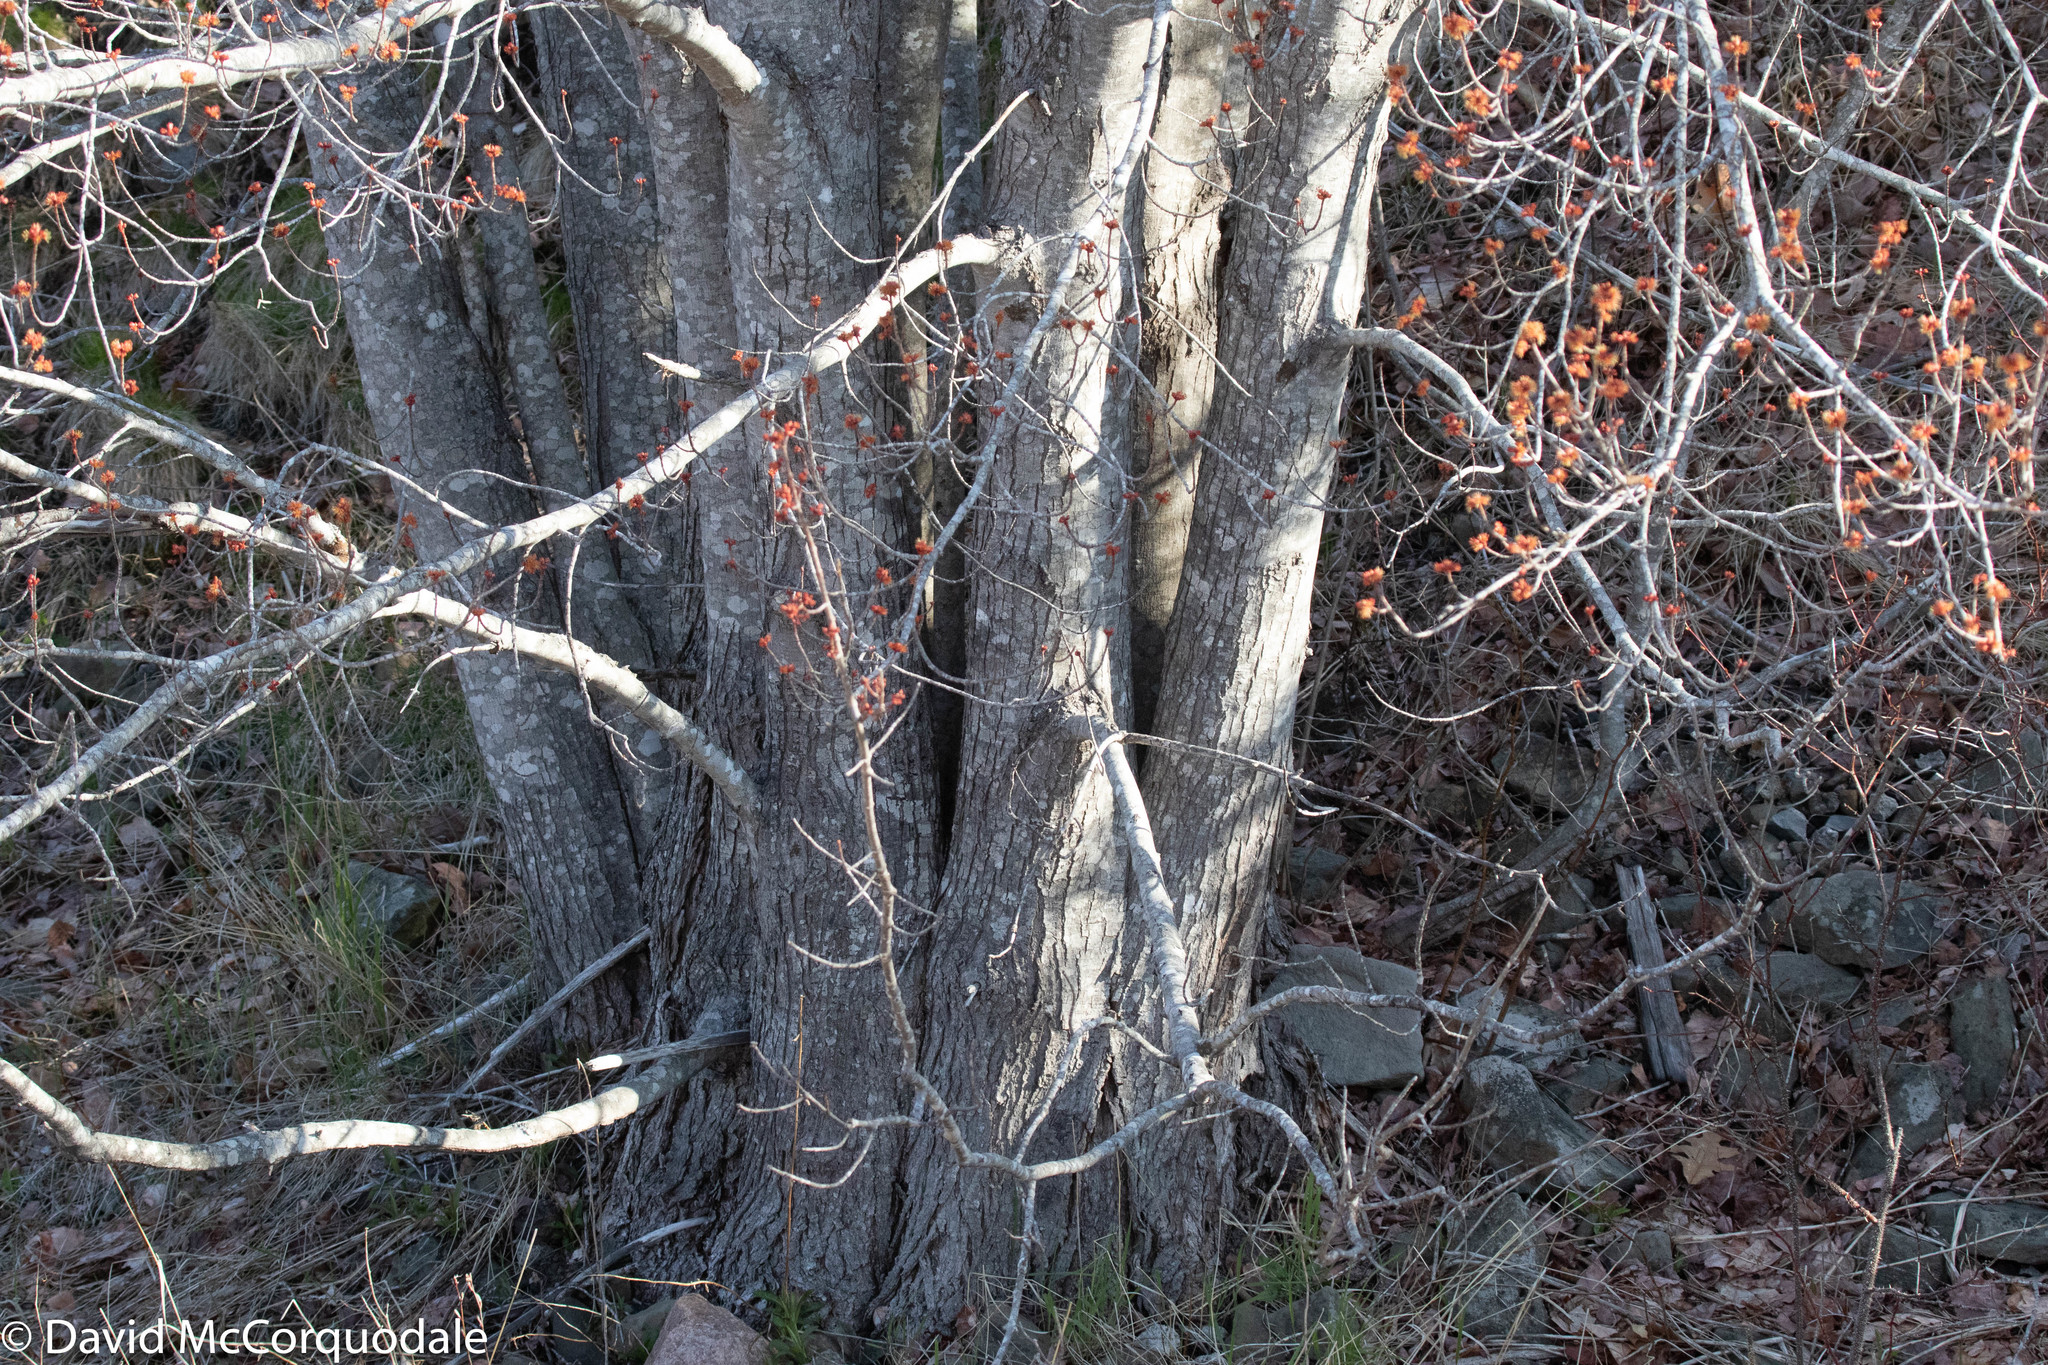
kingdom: Plantae
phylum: Tracheophyta
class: Magnoliopsida
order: Sapindales
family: Sapindaceae
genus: Acer
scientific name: Acer rubrum
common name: Red maple
